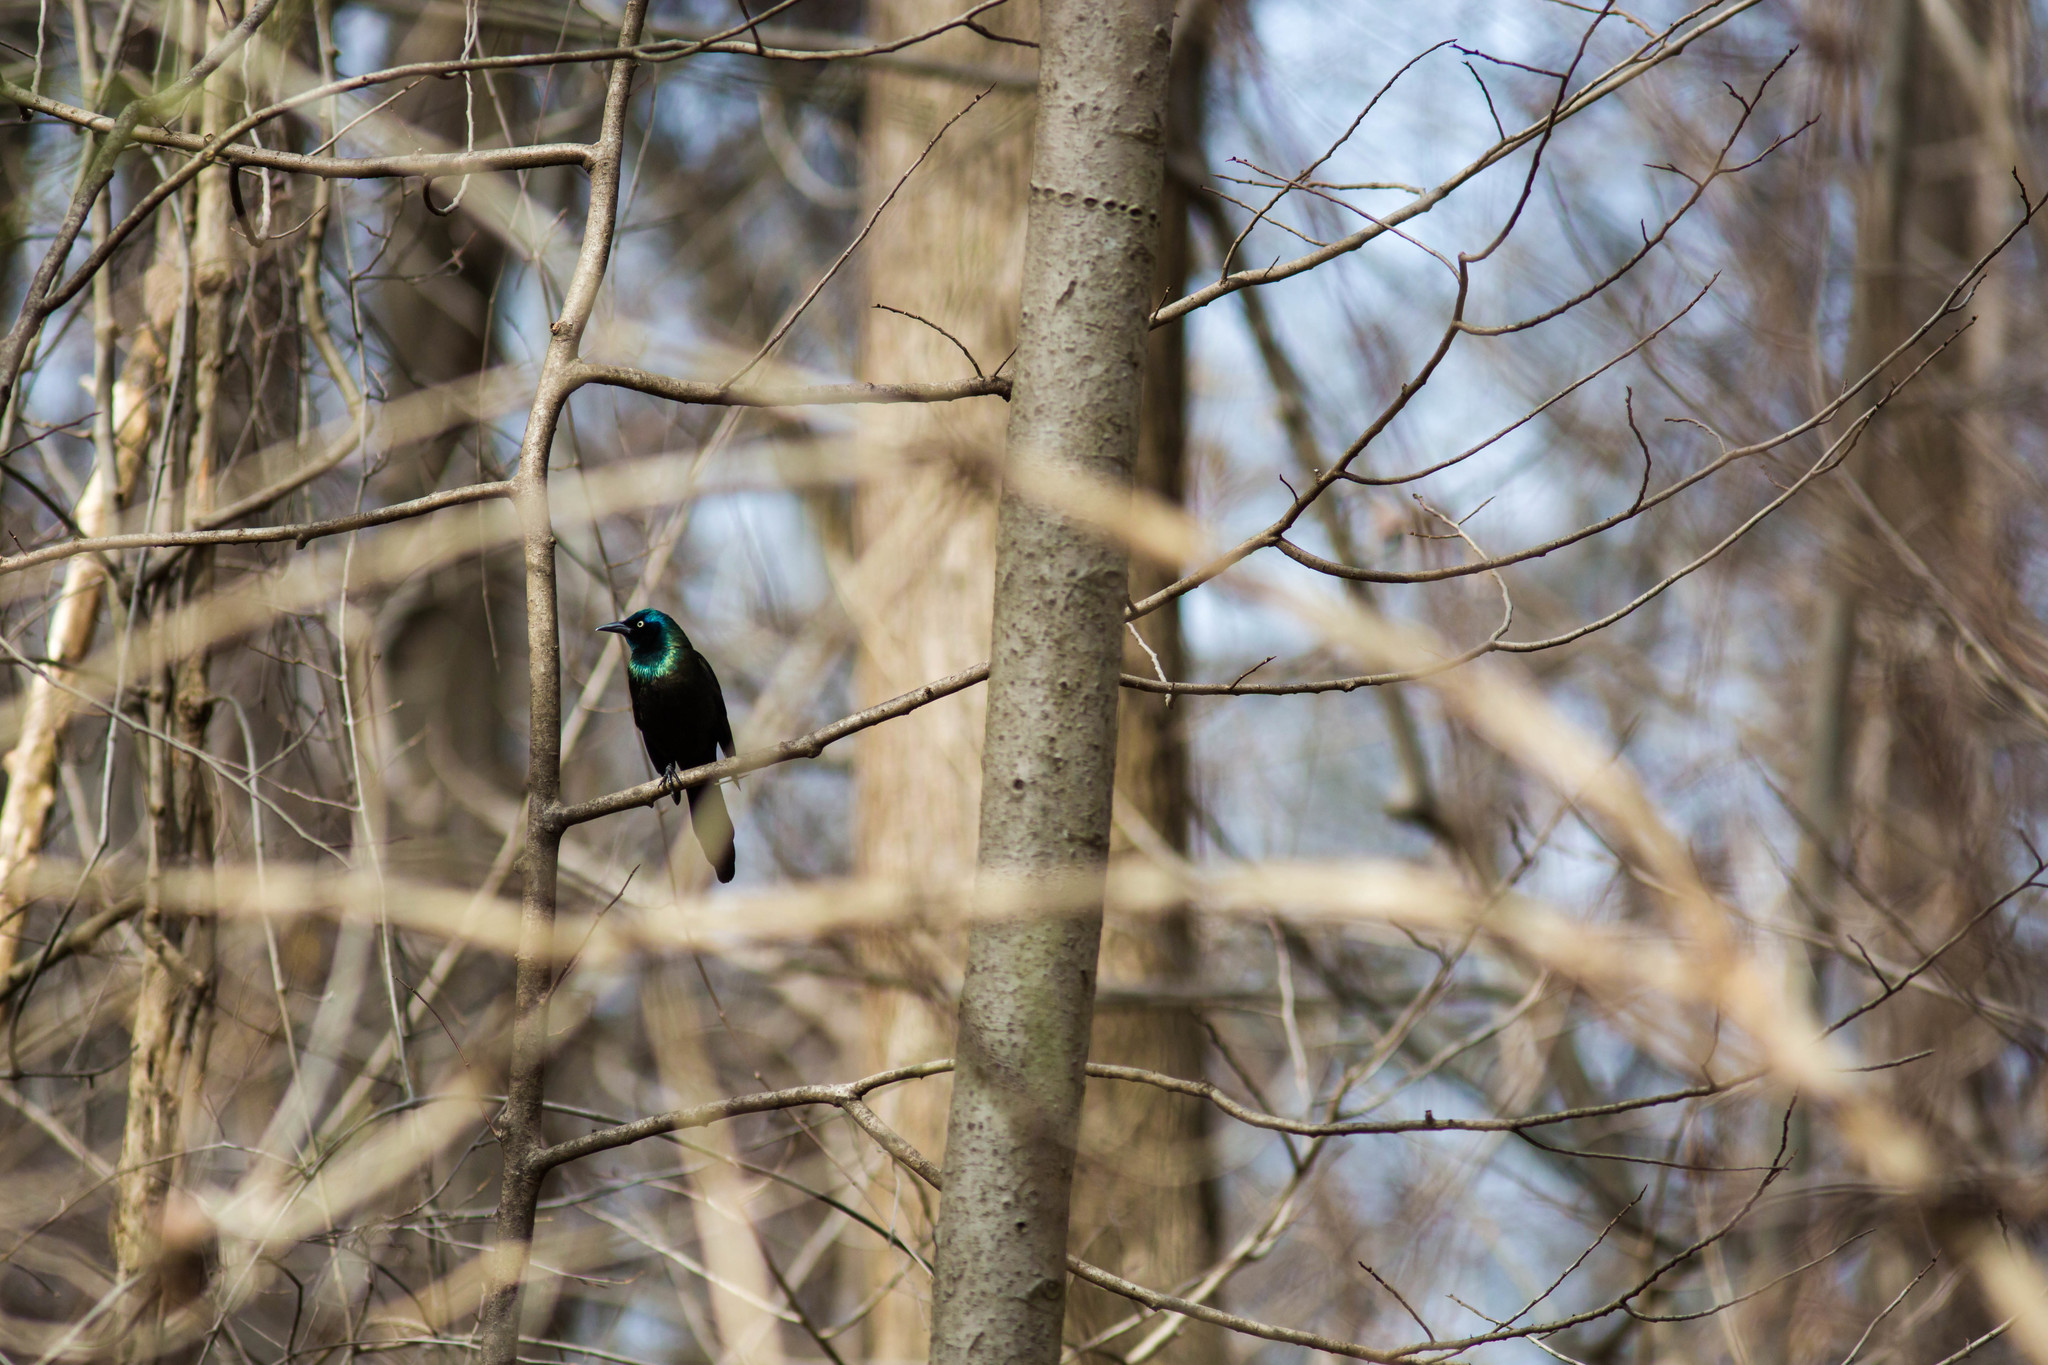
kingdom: Animalia
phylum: Chordata
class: Aves
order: Passeriformes
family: Icteridae
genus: Quiscalus
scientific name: Quiscalus quiscula
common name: Common grackle
